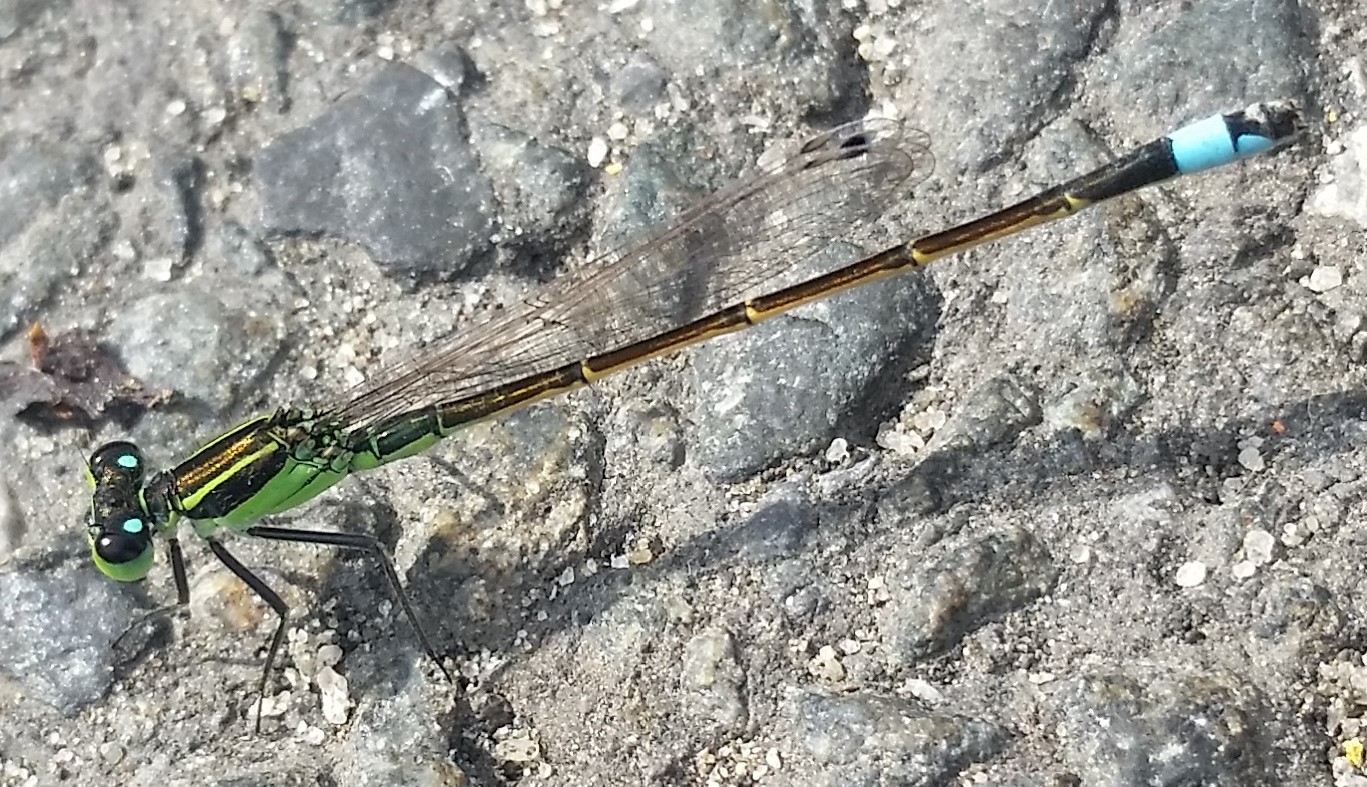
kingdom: Animalia
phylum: Arthropoda
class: Insecta
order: Odonata
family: Coenagrionidae
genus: Ischnura
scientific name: Ischnura ramburii
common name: Rambur's forktail
